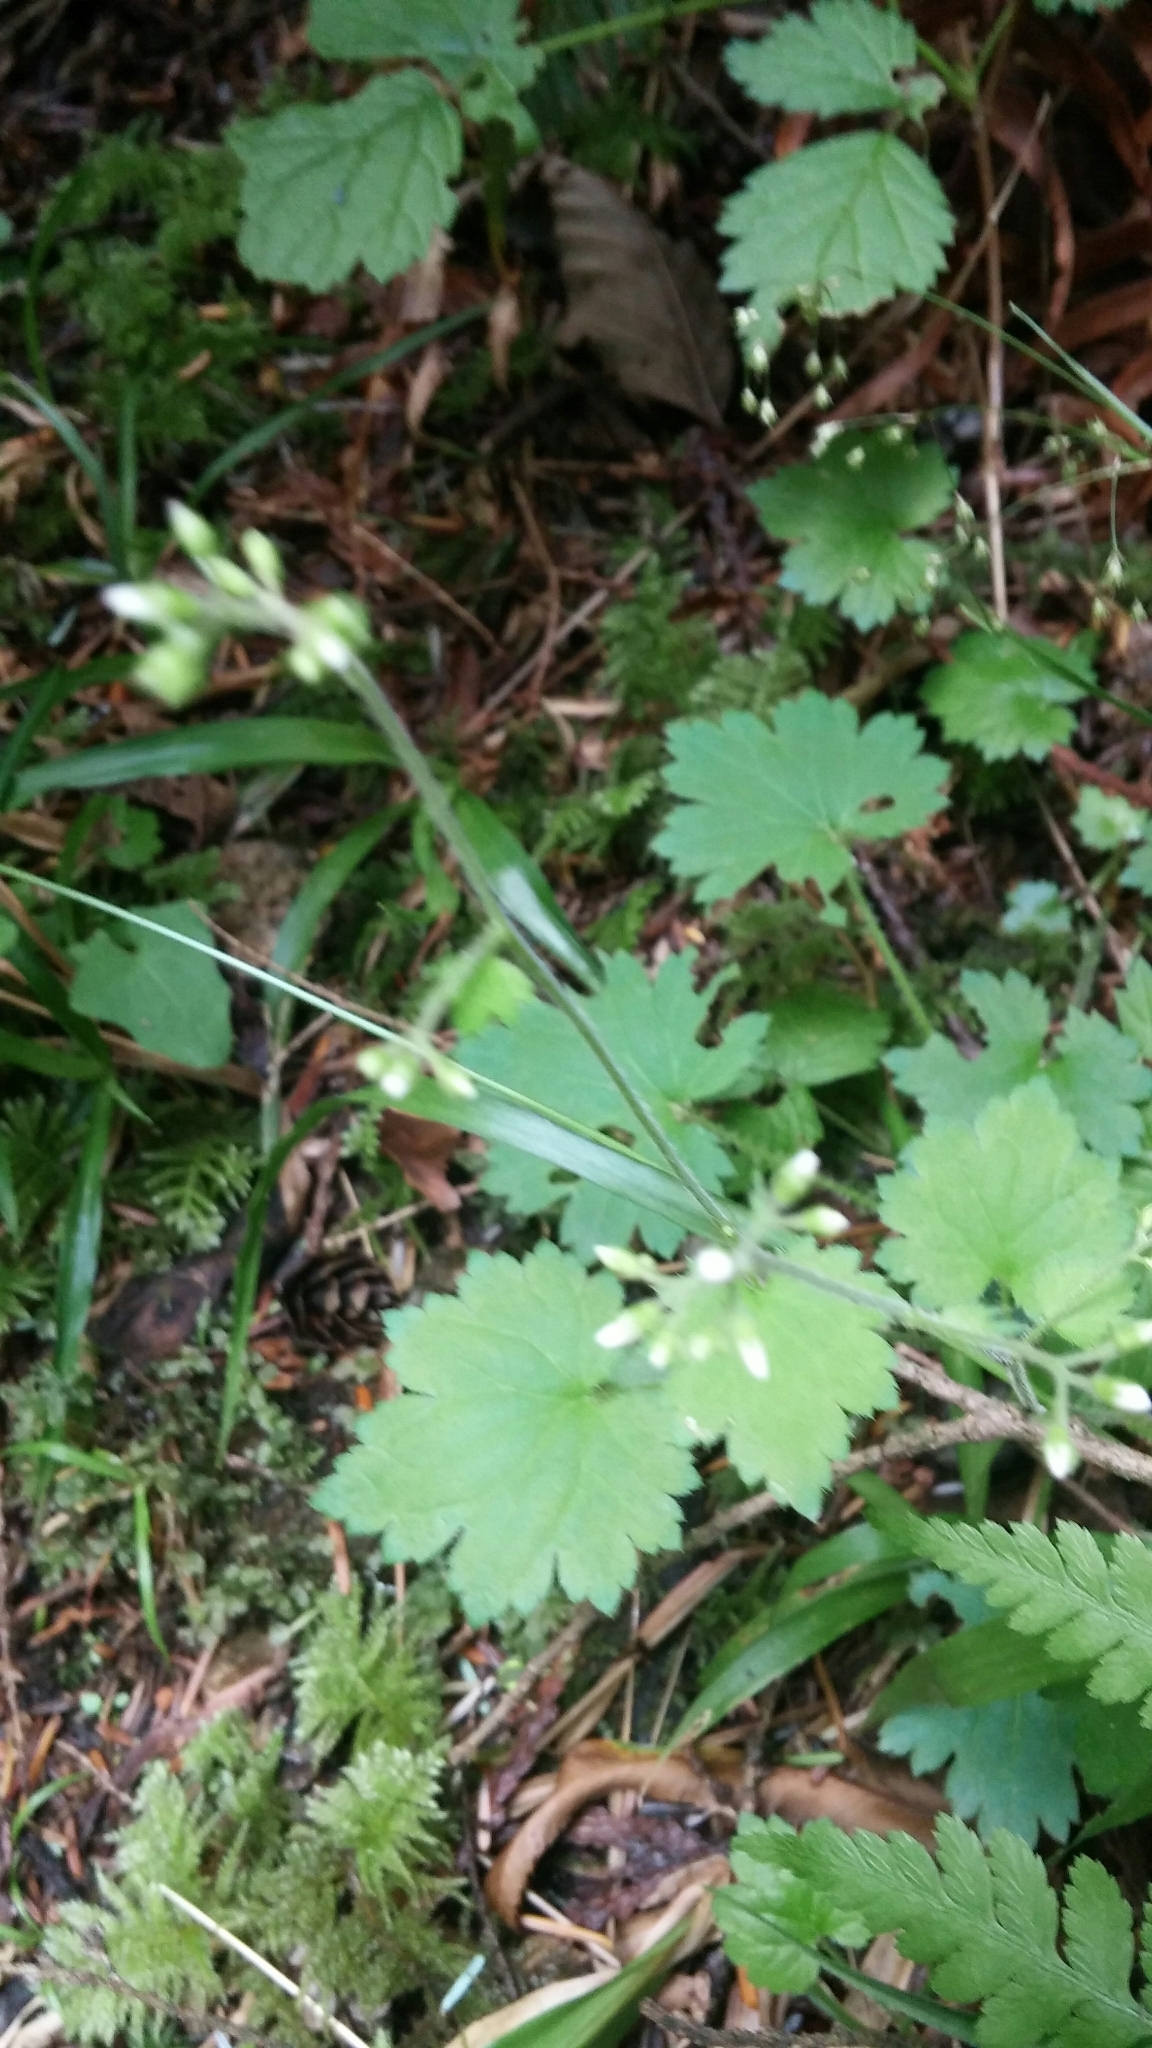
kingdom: Plantae
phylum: Tracheophyta
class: Magnoliopsida
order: Saxifragales
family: Saxifragaceae
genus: Tiarella
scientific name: Tiarella trifoliata
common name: Sugar-scoop
